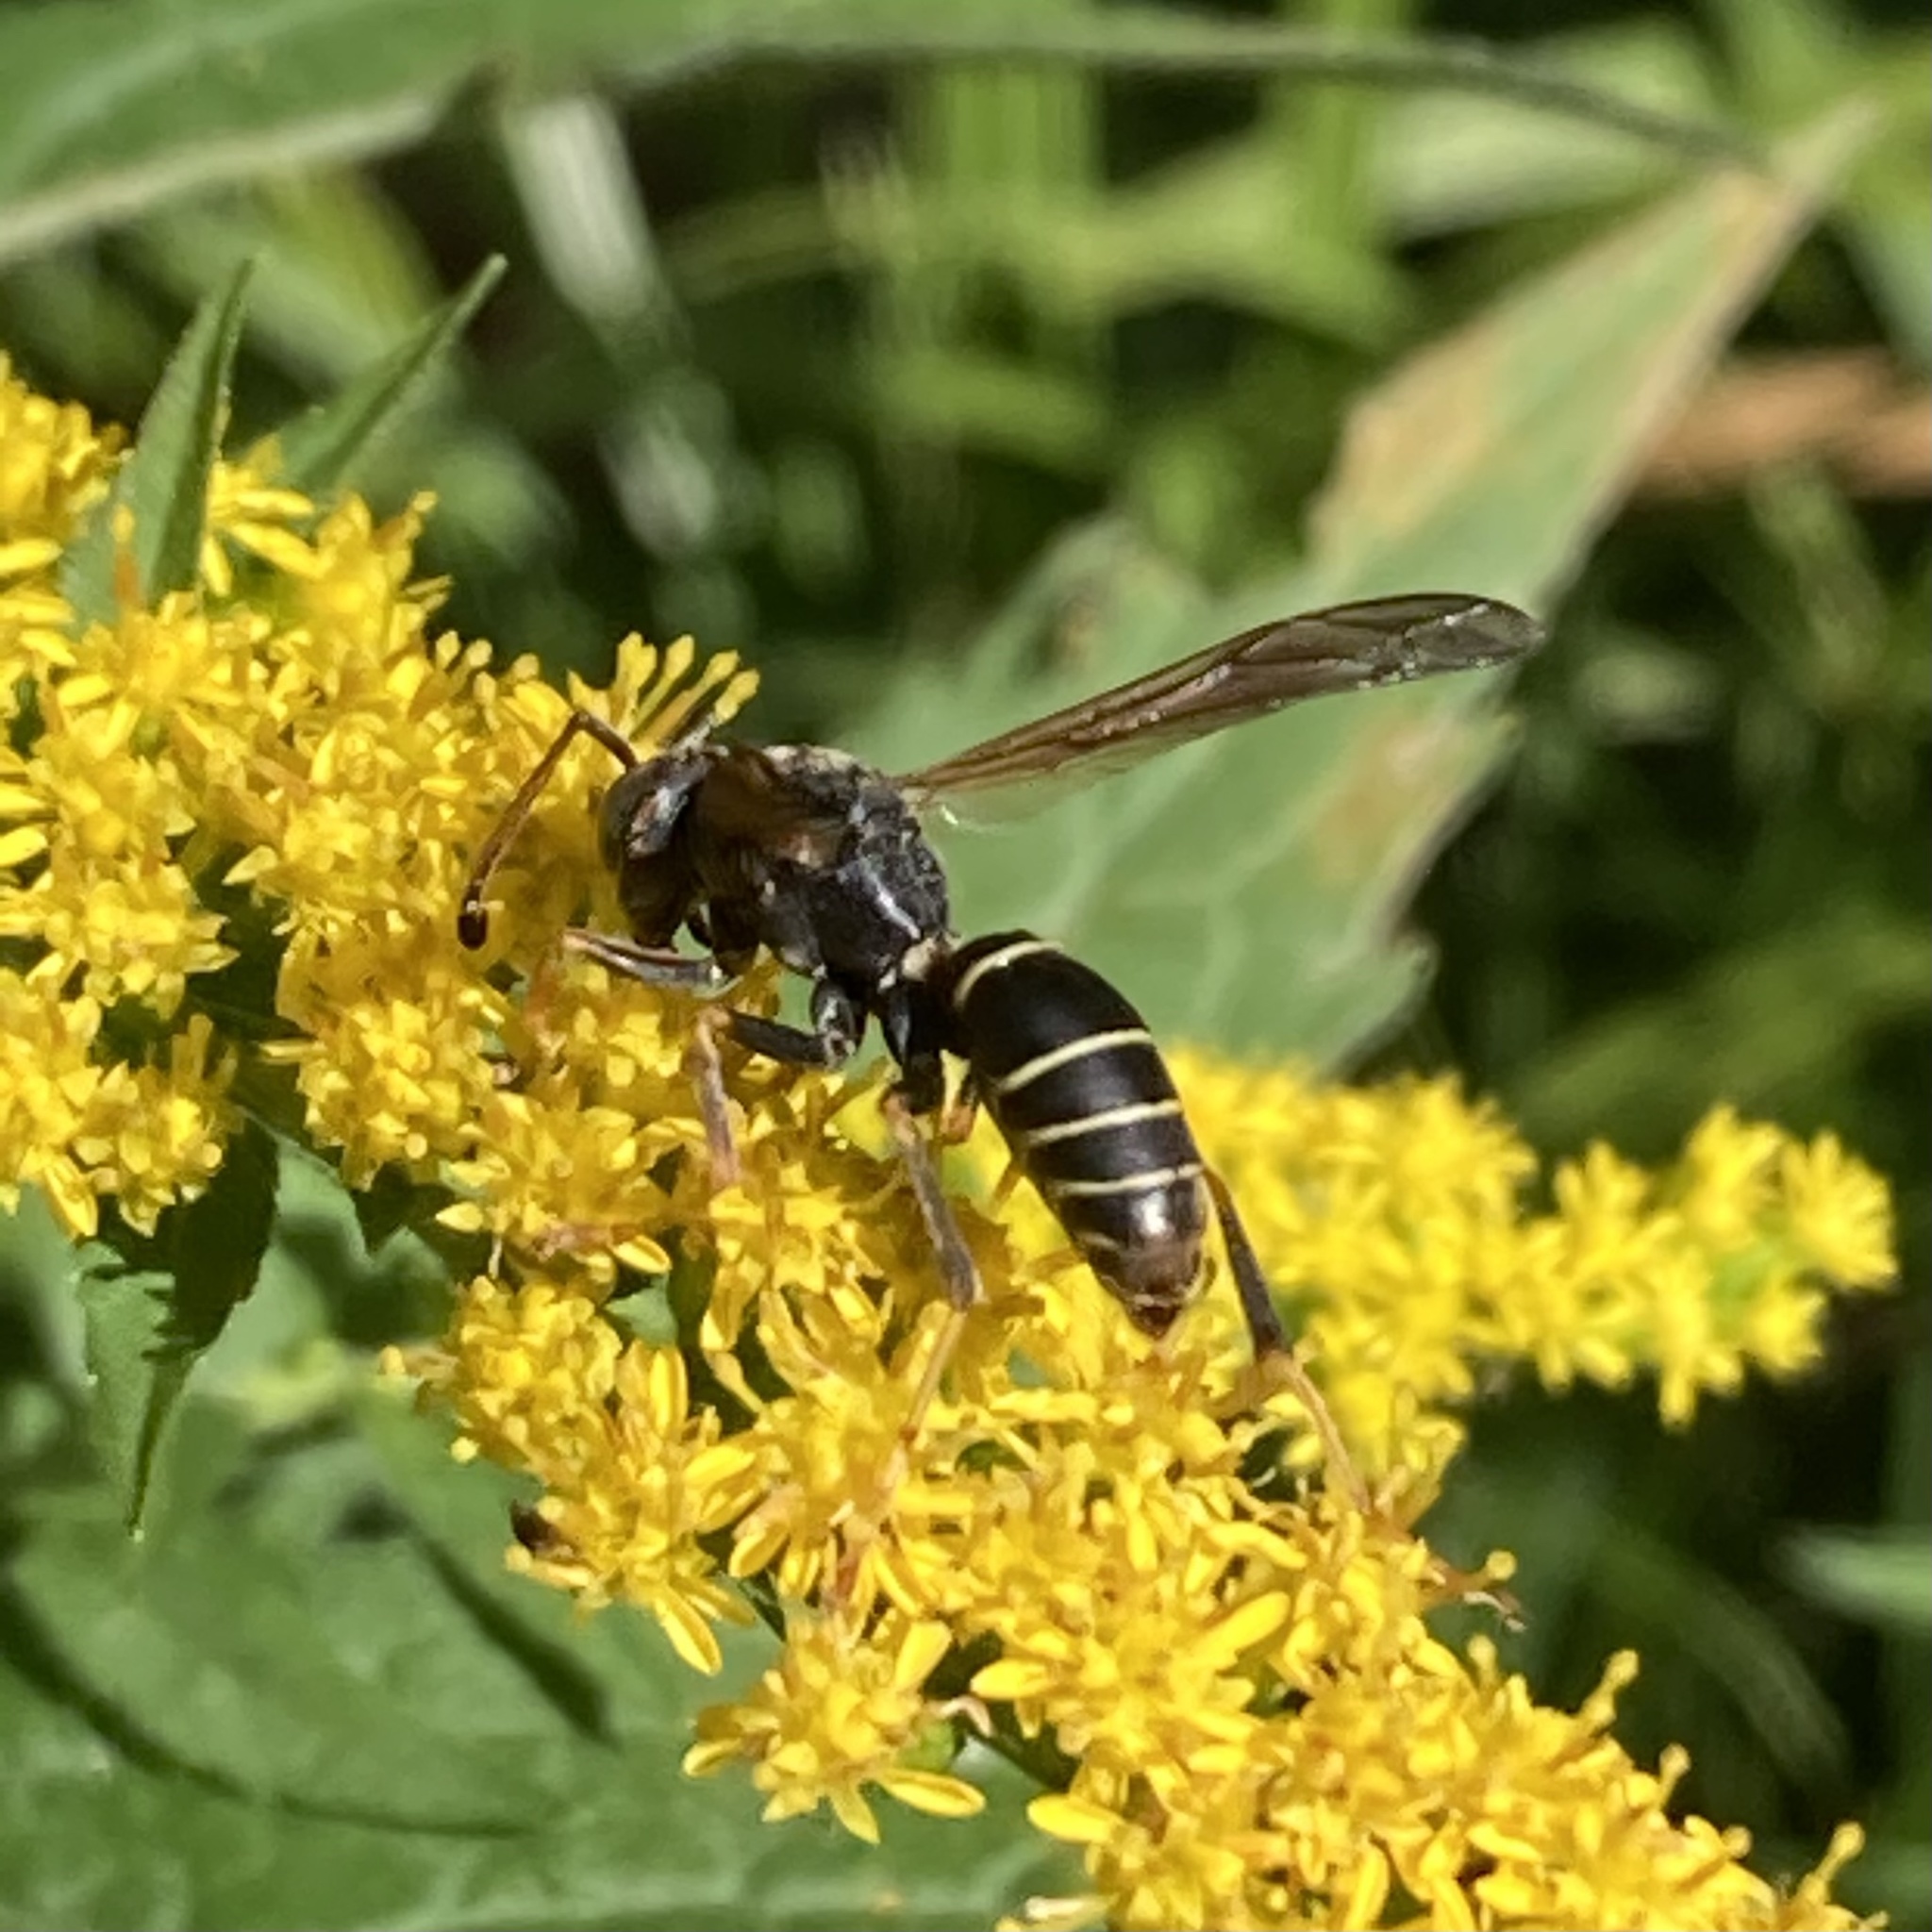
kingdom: Animalia
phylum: Arthropoda
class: Insecta
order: Hymenoptera
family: Eumenidae
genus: Polistes
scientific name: Polistes fuscatus
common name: Dark paper wasp
